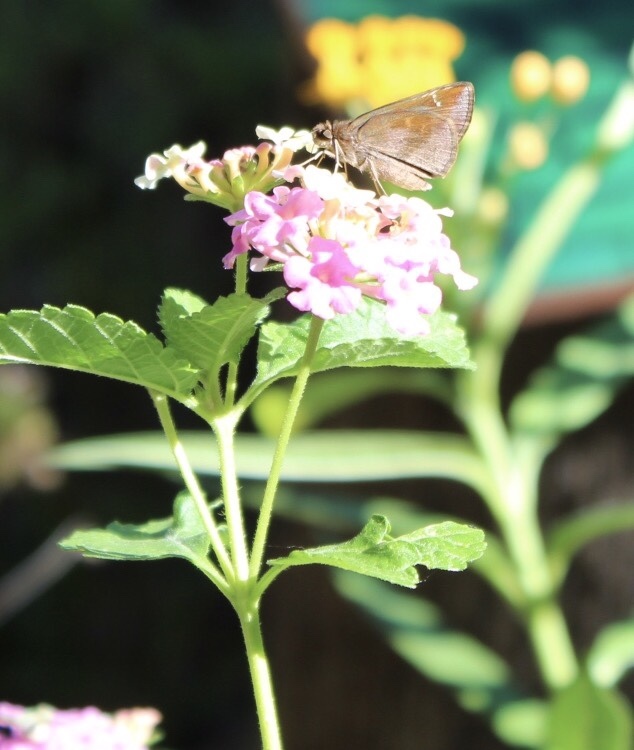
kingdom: Animalia
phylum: Arthropoda
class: Insecta
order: Lepidoptera
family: Hesperiidae
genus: Lerema
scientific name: Lerema accius
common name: Clouded skipper
